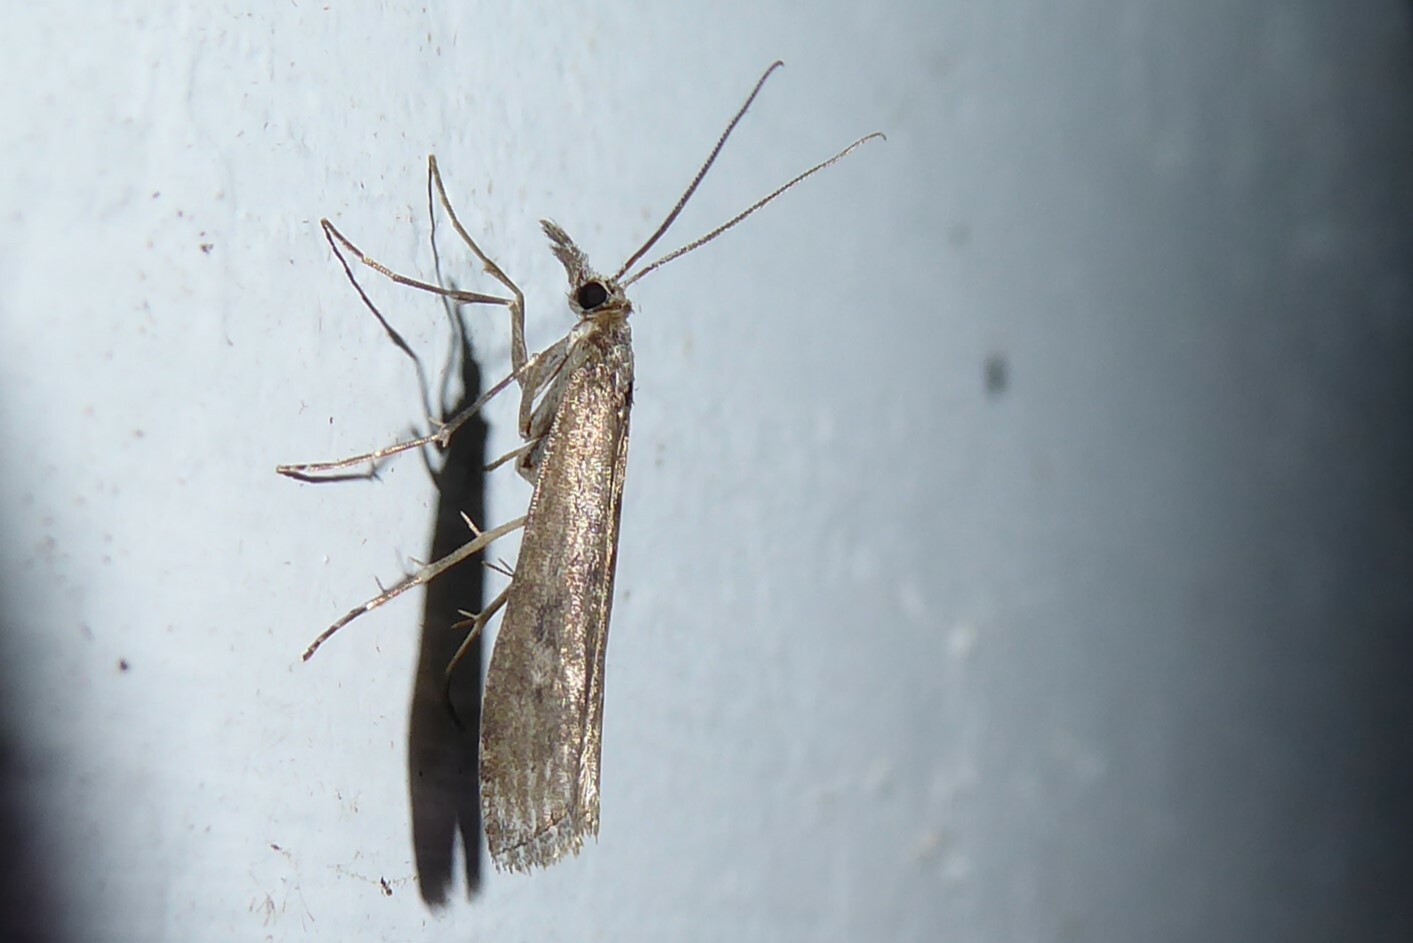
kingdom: Animalia
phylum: Arthropoda
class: Insecta
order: Lepidoptera
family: Crambidae
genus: Orocrambus
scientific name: Orocrambus cyclopicus
